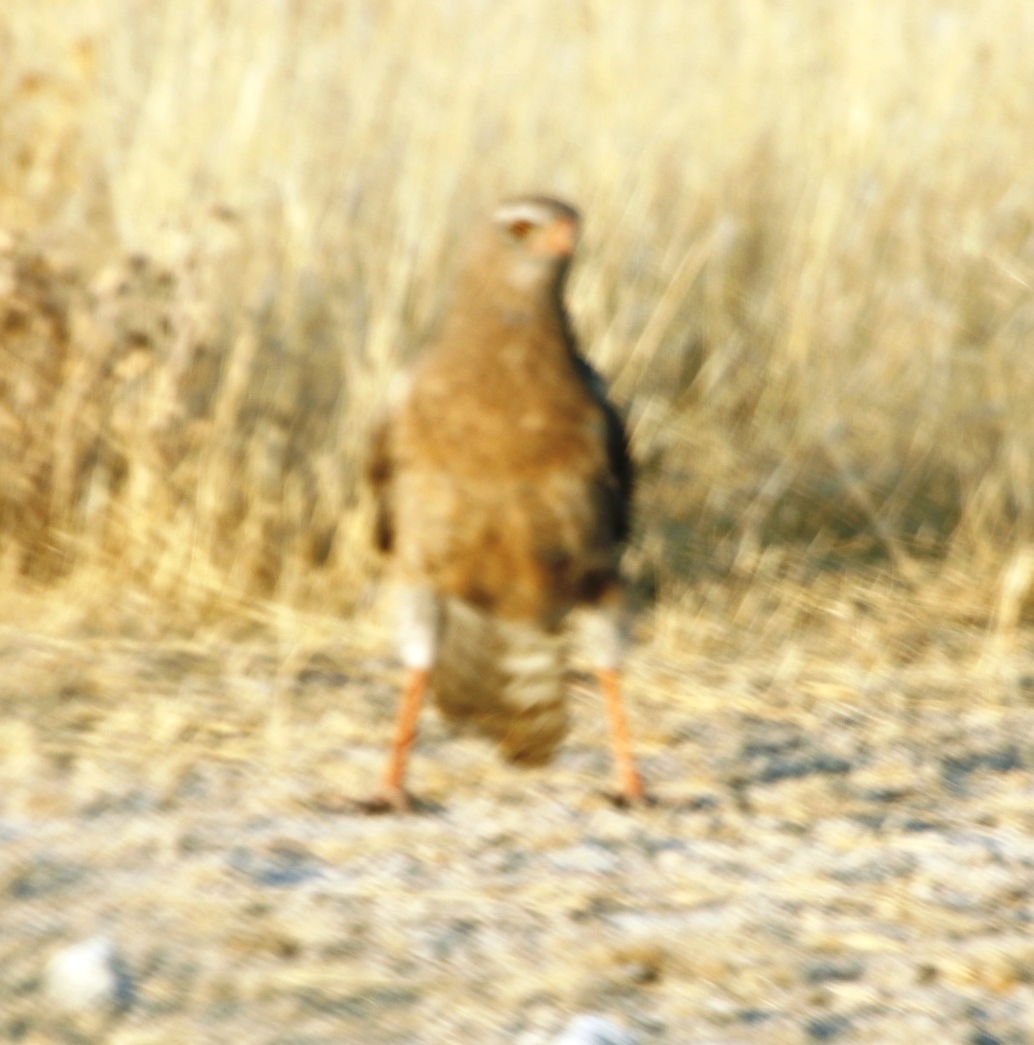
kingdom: Animalia
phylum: Chordata
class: Aves
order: Accipitriformes
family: Accipitridae
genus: Melierax
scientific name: Melierax canorus
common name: Pale chanting-goshawk
